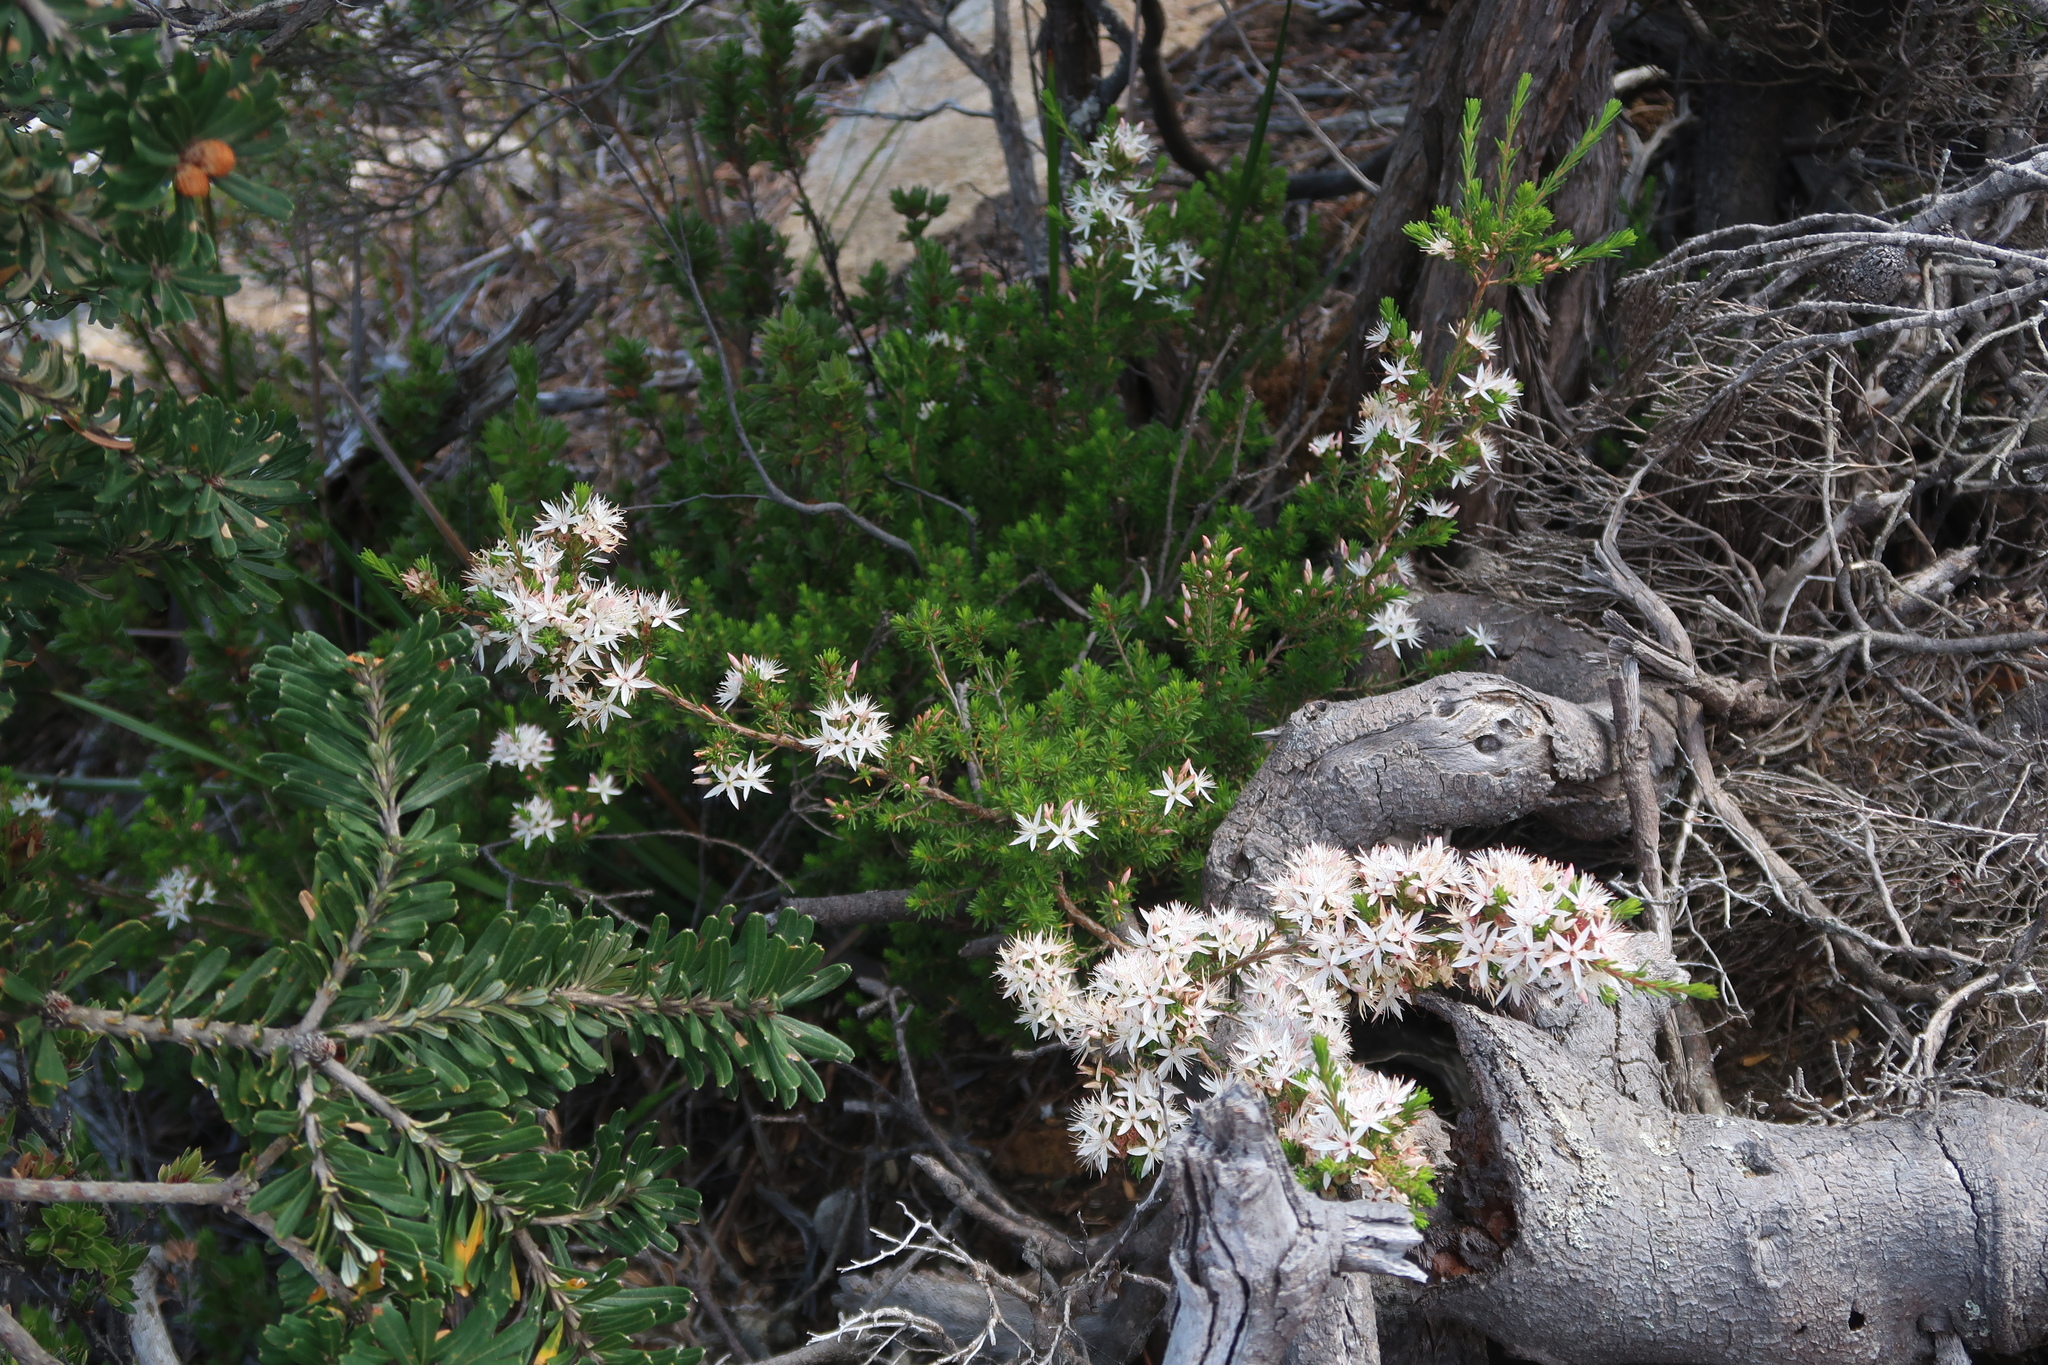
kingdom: Plantae
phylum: Tracheophyta
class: Magnoliopsida
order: Myrtales
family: Myrtaceae
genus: Calytrix
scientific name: Calytrix tetragona
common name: Common fringe myrtle
